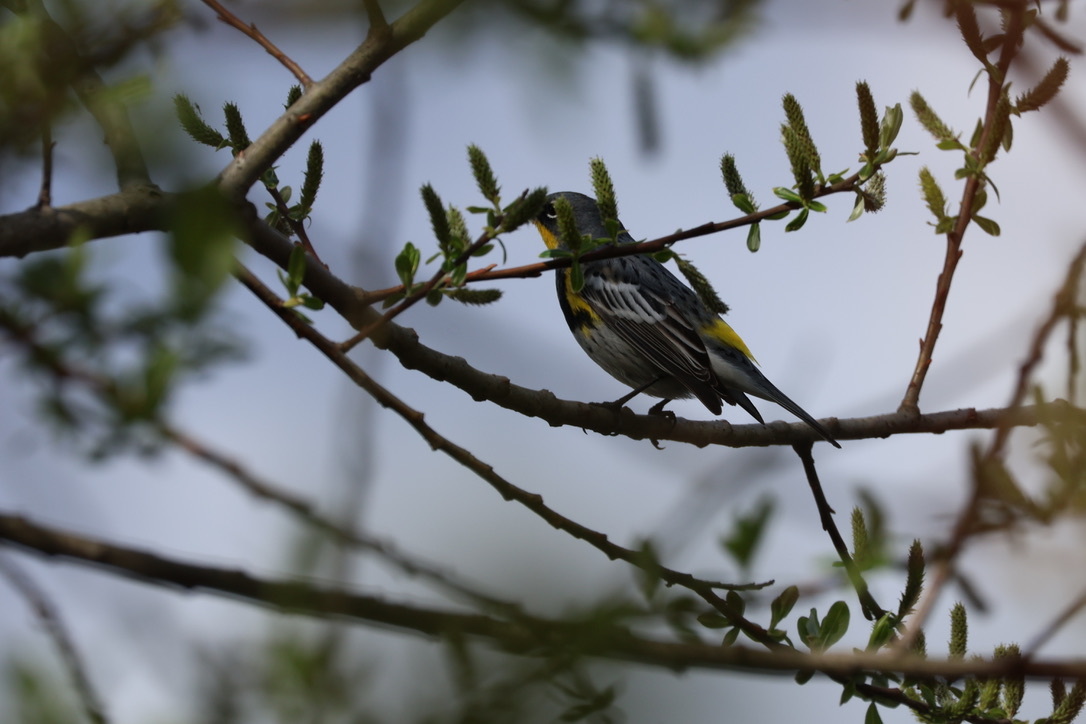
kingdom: Animalia
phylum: Chordata
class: Aves
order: Passeriformes
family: Parulidae
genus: Setophaga
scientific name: Setophaga coronata
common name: Myrtle warbler
